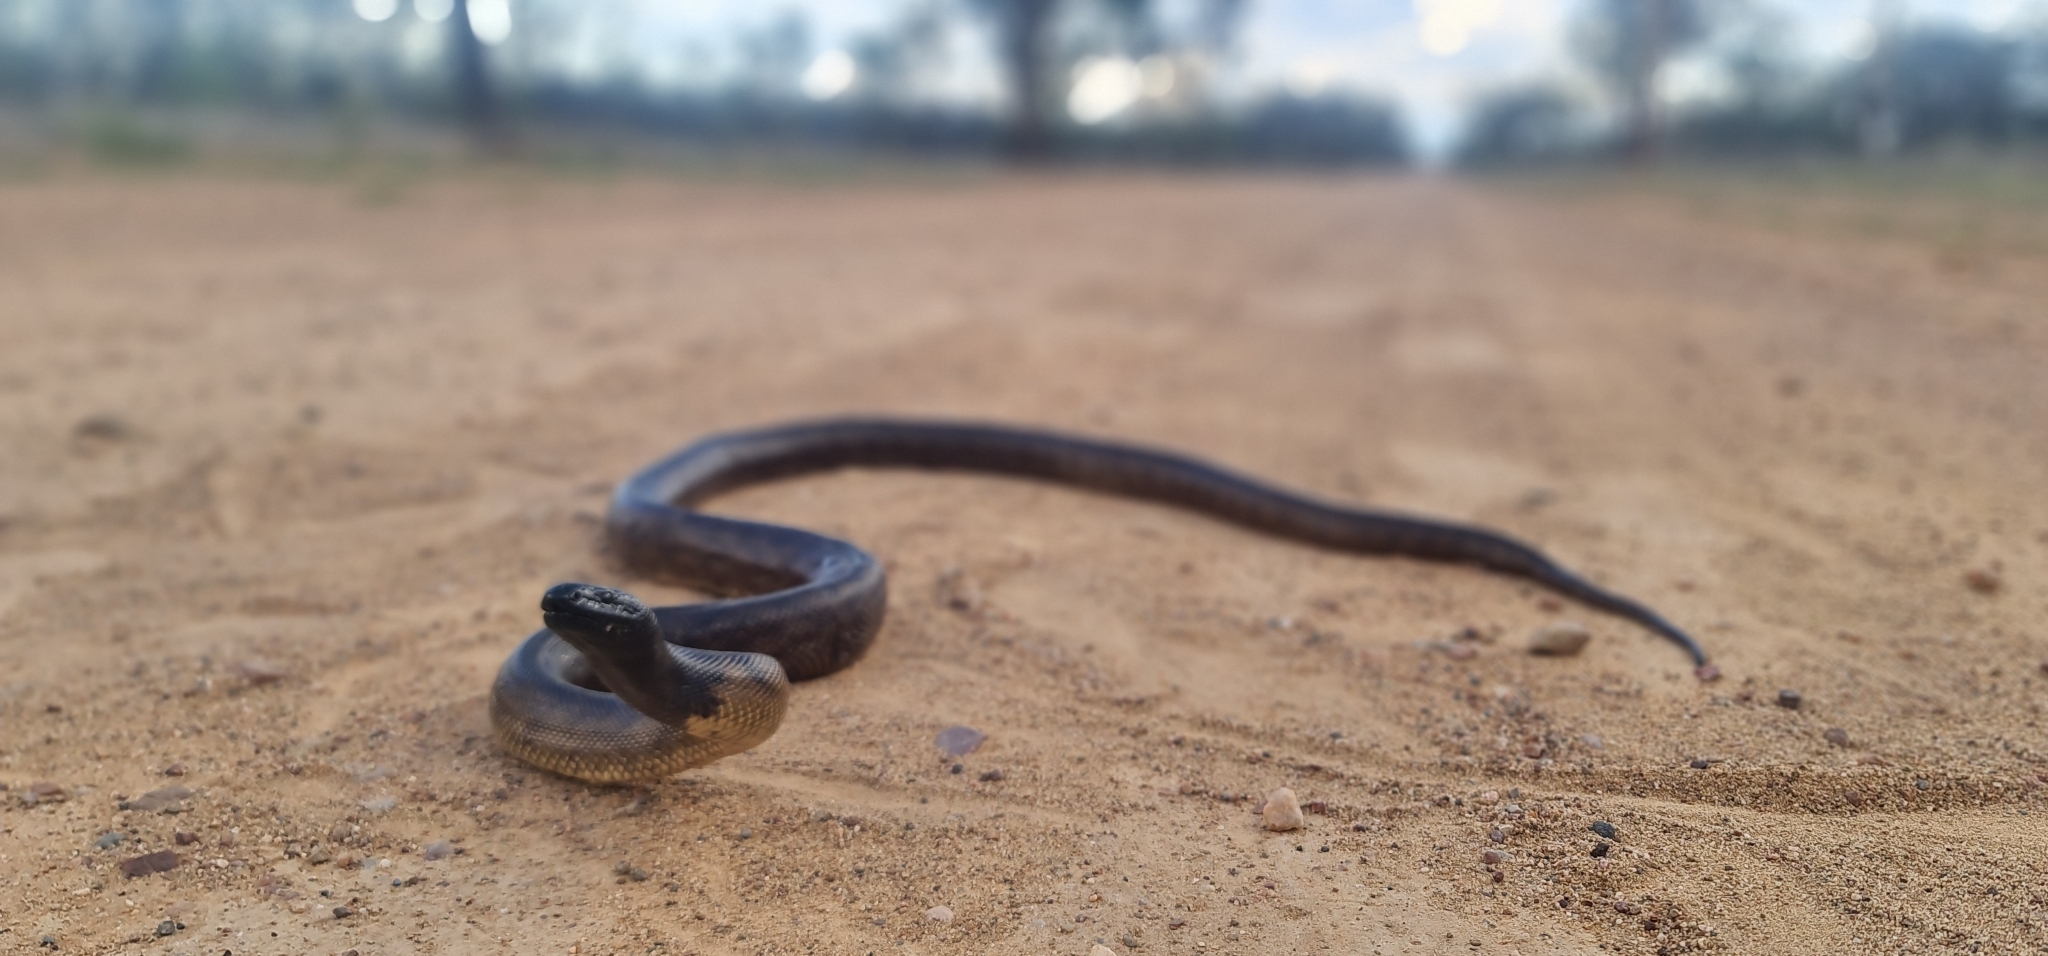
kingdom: Animalia
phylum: Chordata
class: Squamata
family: Pythonidae
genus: Aspidites
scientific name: Aspidites melanocephalus
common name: Black-headed python
